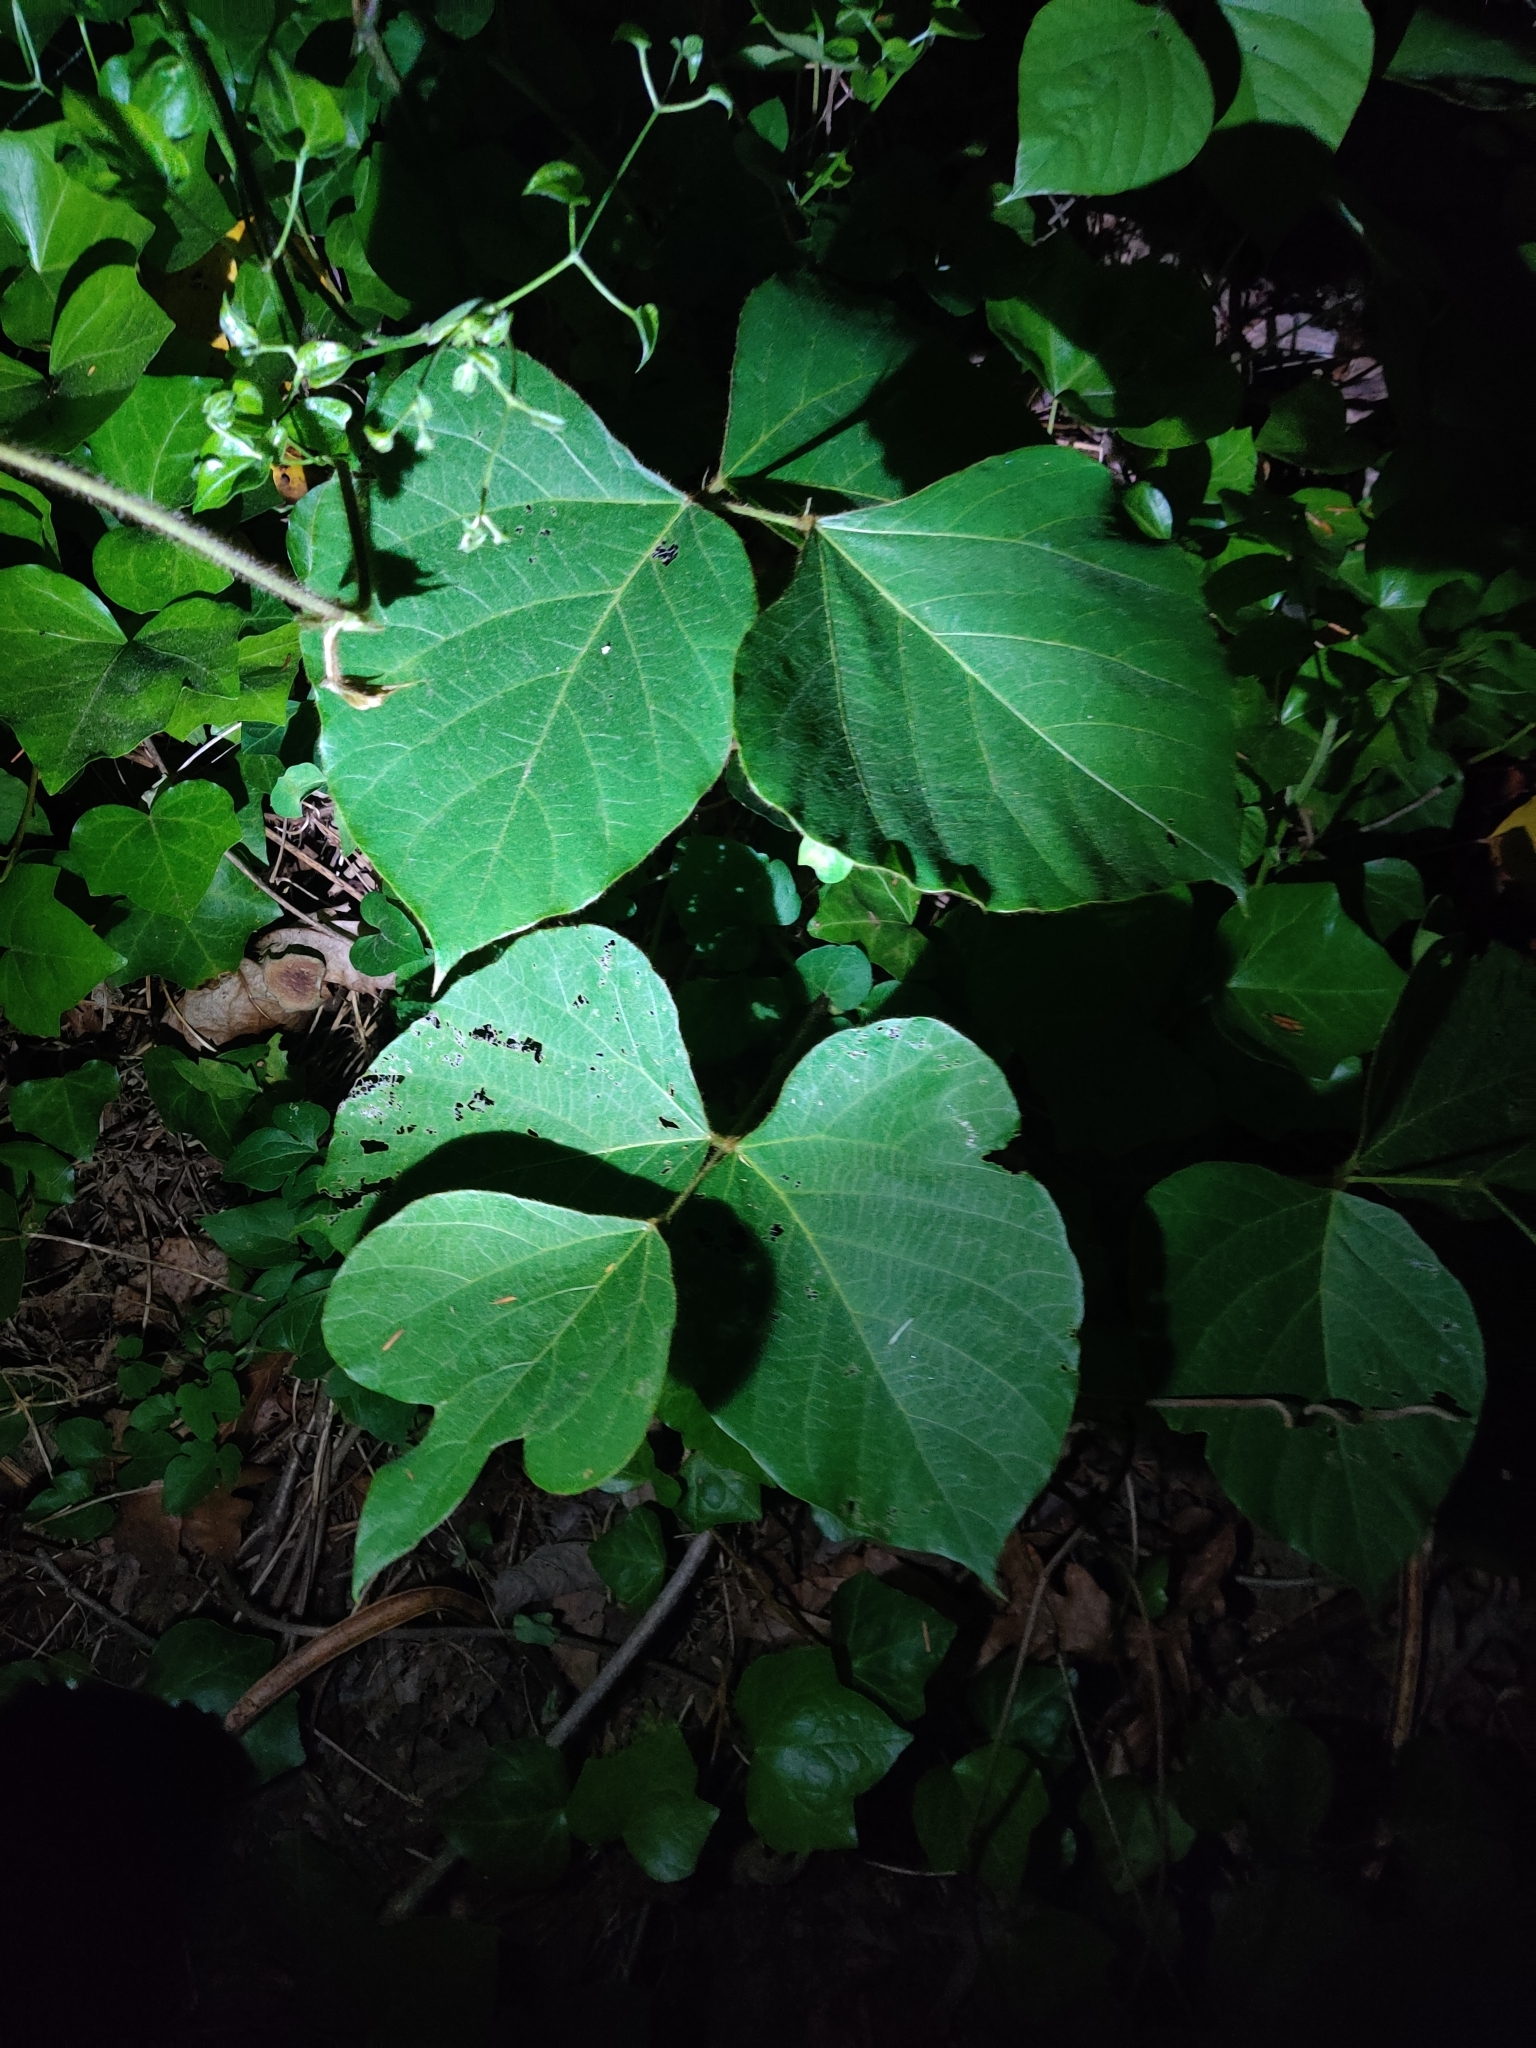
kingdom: Plantae
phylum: Tracheophyta
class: Magnoliopsida
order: Fabales
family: Fabaceae
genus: Pueraria
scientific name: Pueraria montana
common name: Kudzu
